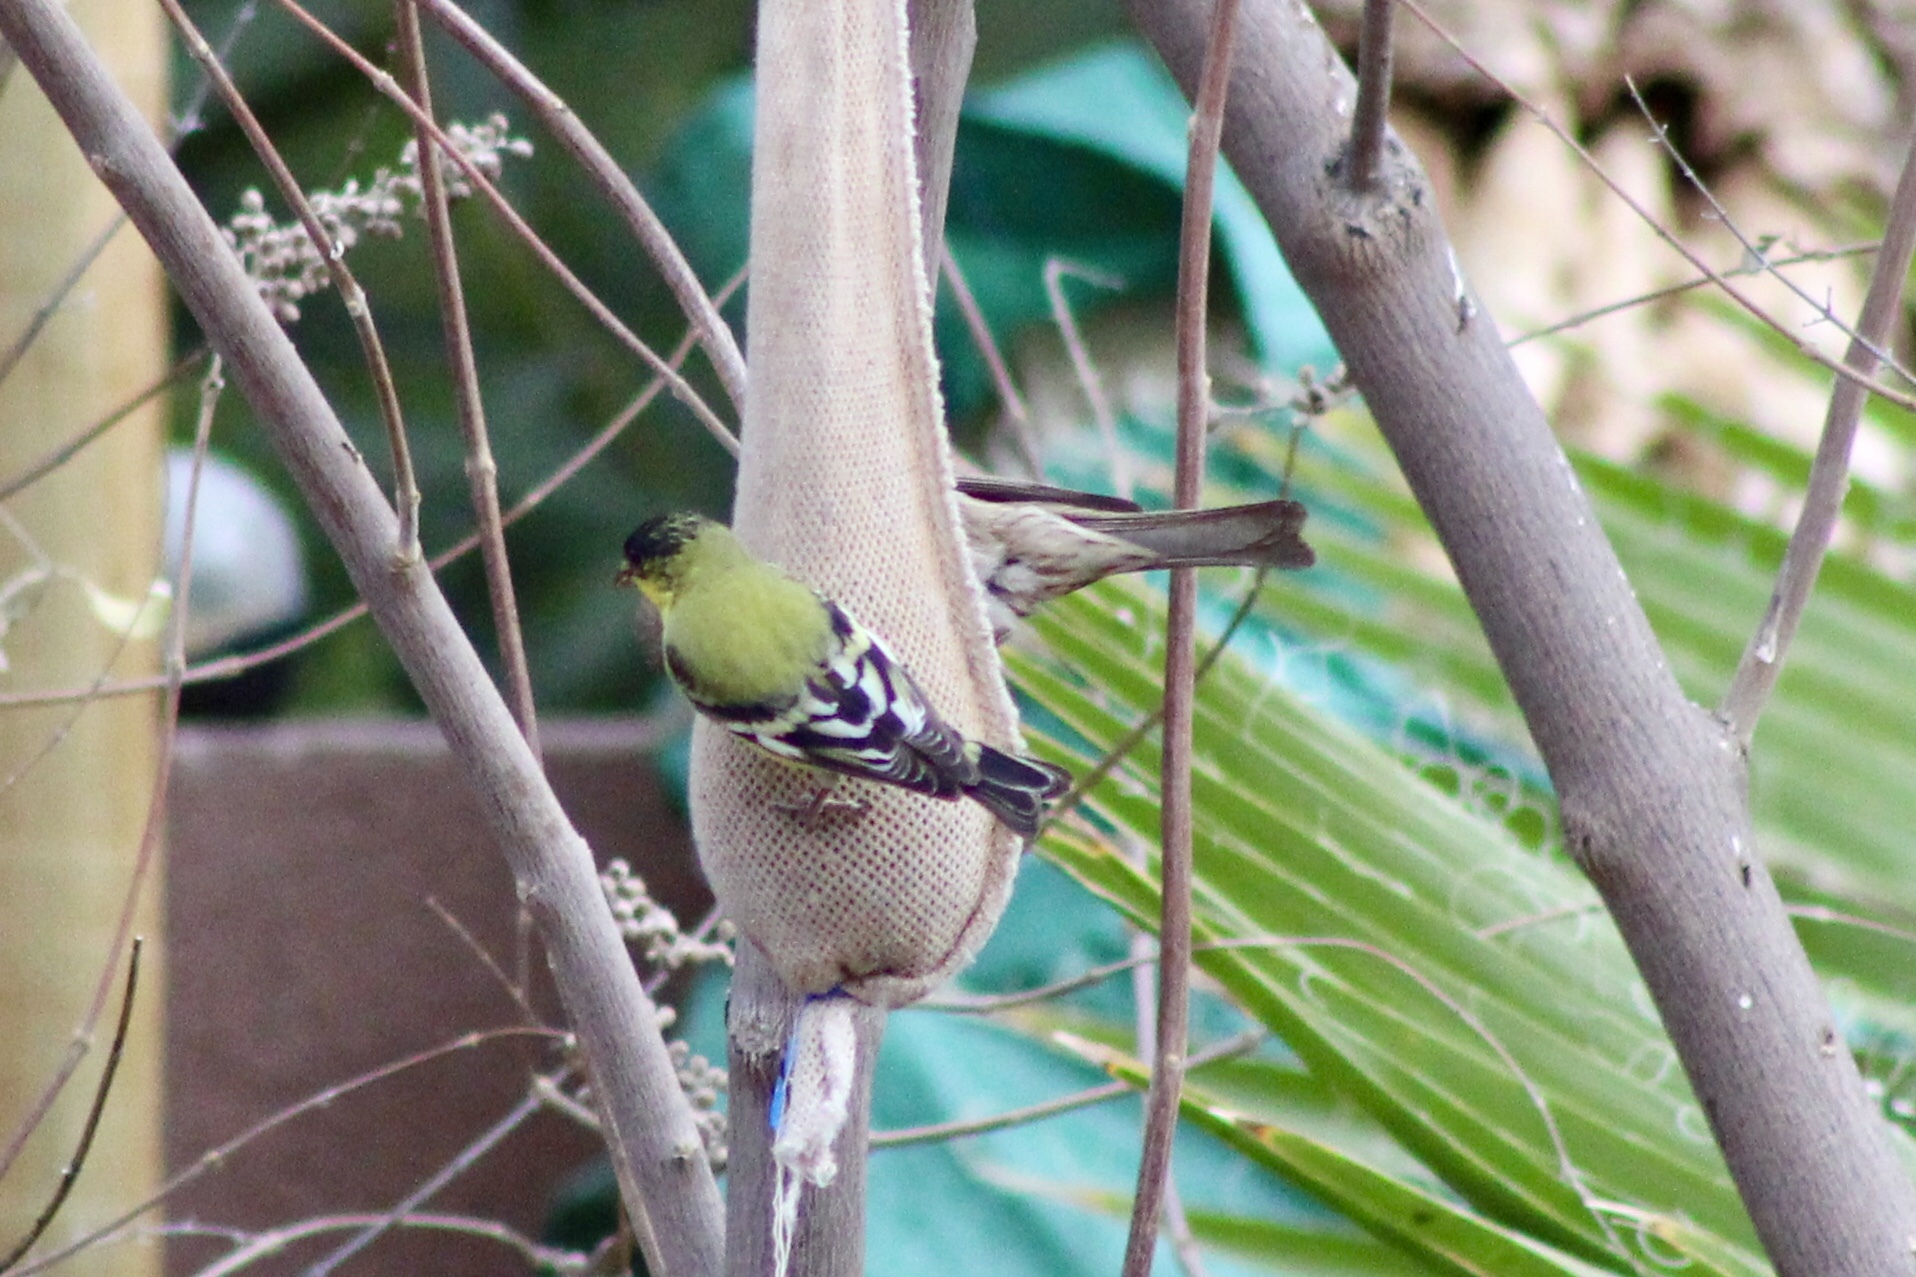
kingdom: Animalia
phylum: Chordata
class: Aves
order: Passeriformes
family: Fringillidae
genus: Spinus
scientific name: Spinus psaltria
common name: Lesser goldfinch
